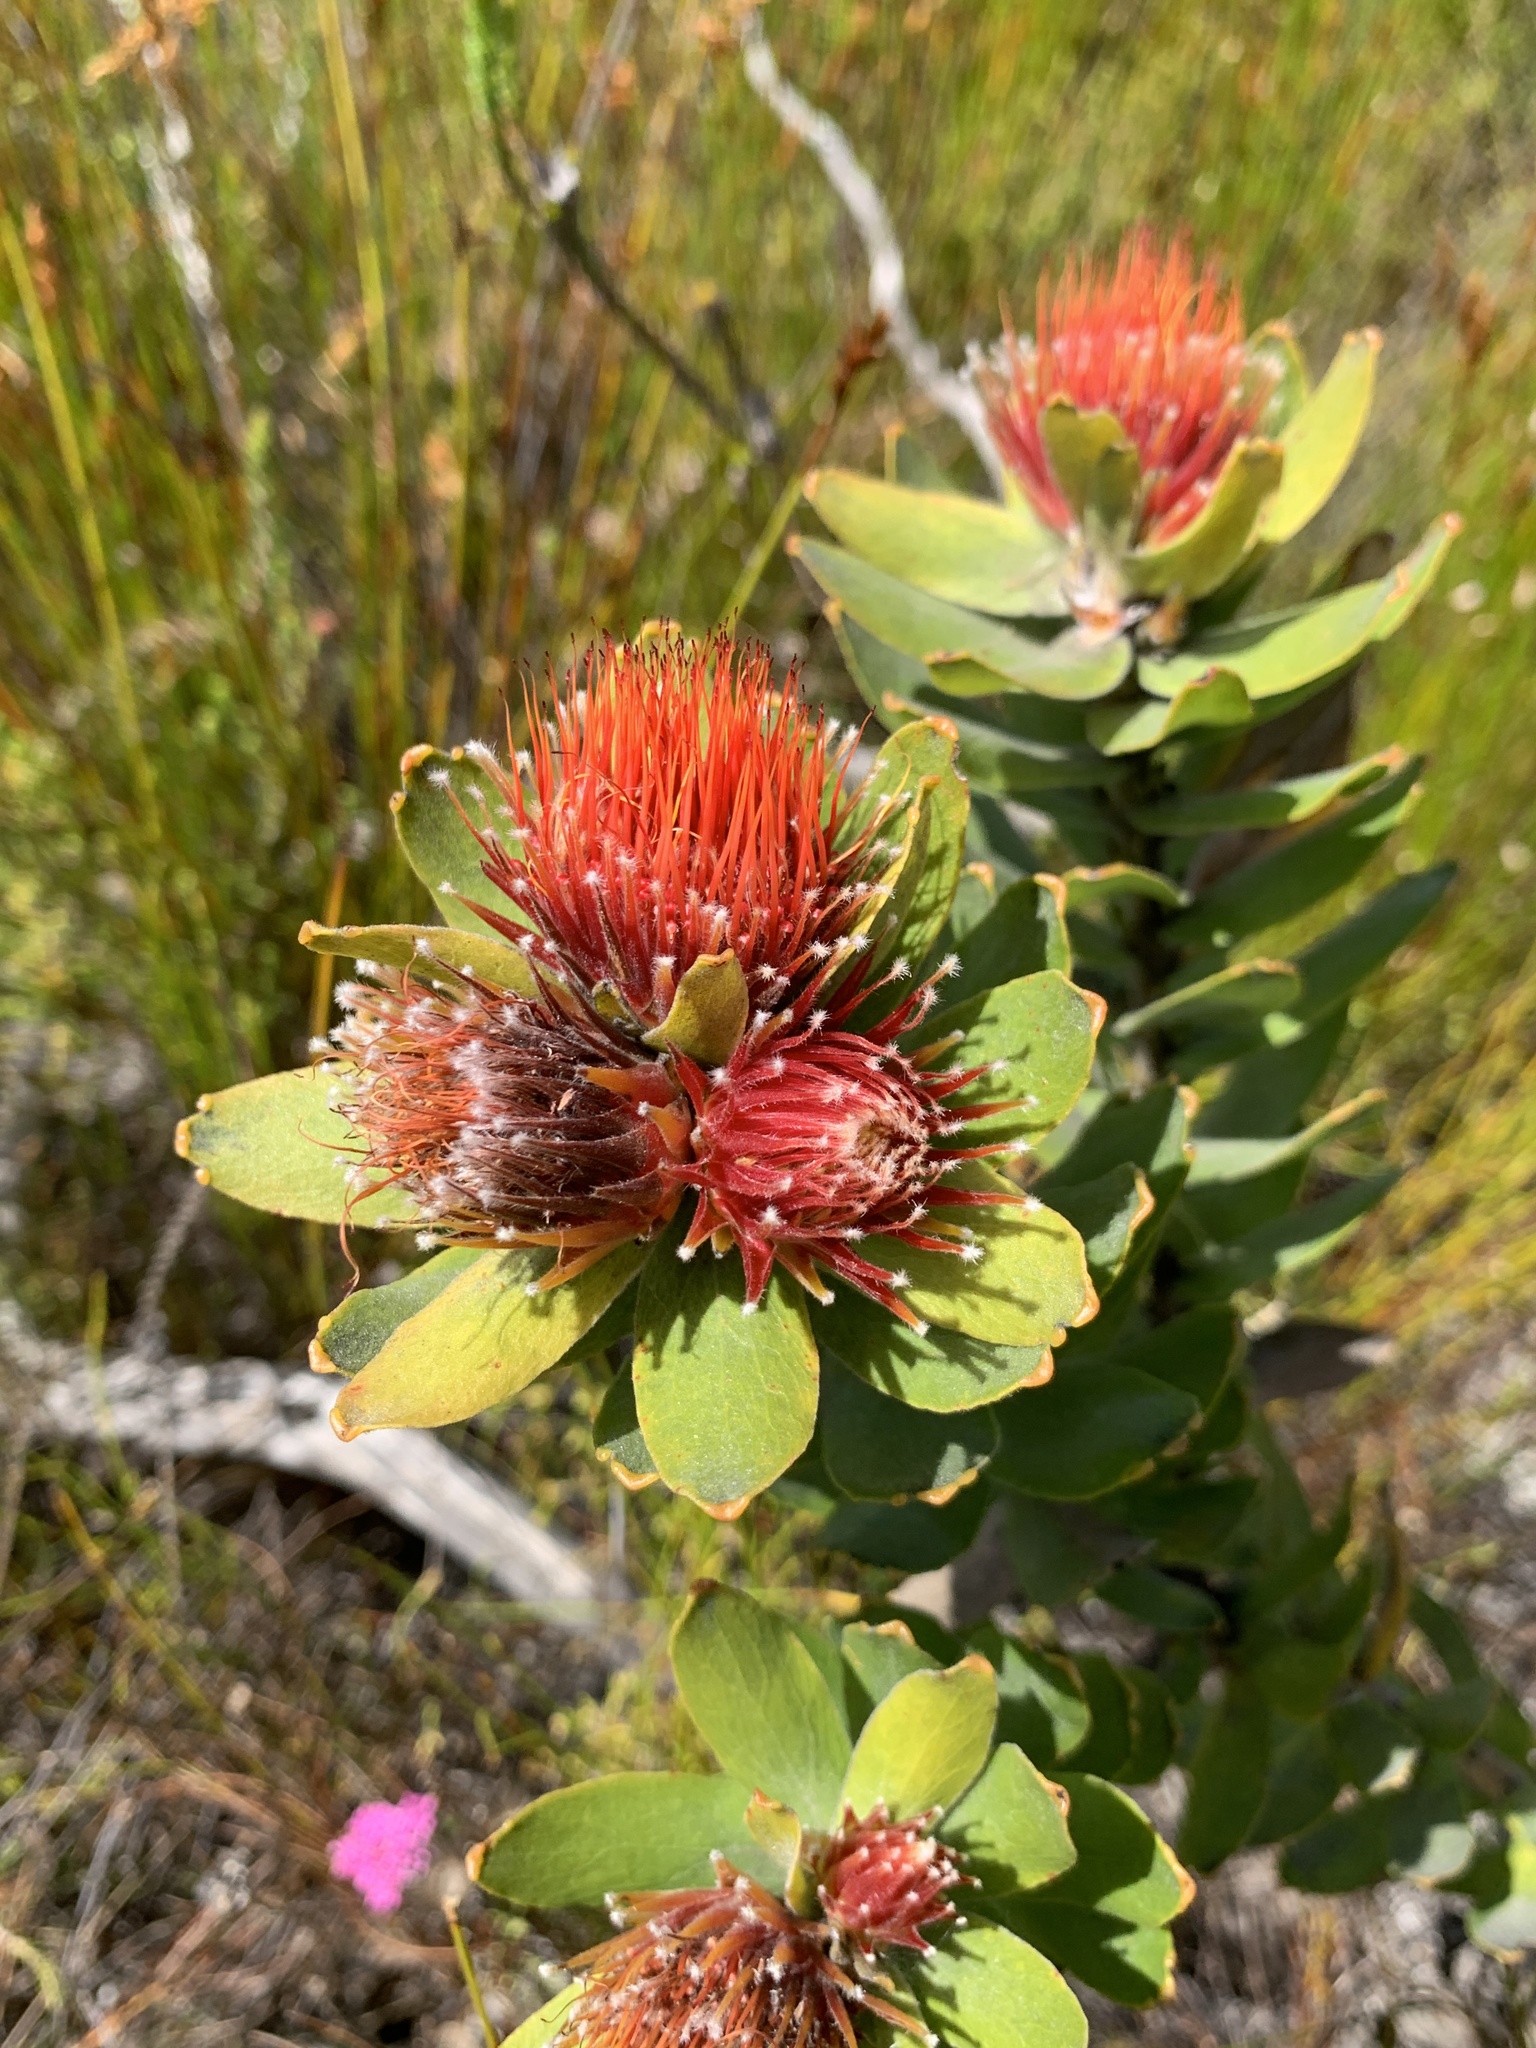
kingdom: Plantae
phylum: Tracheophyta
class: Magnoliopsida
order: Proteales
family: Proteaceae
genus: Leucospermum
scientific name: Leucospermum oleifolium
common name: Matches
